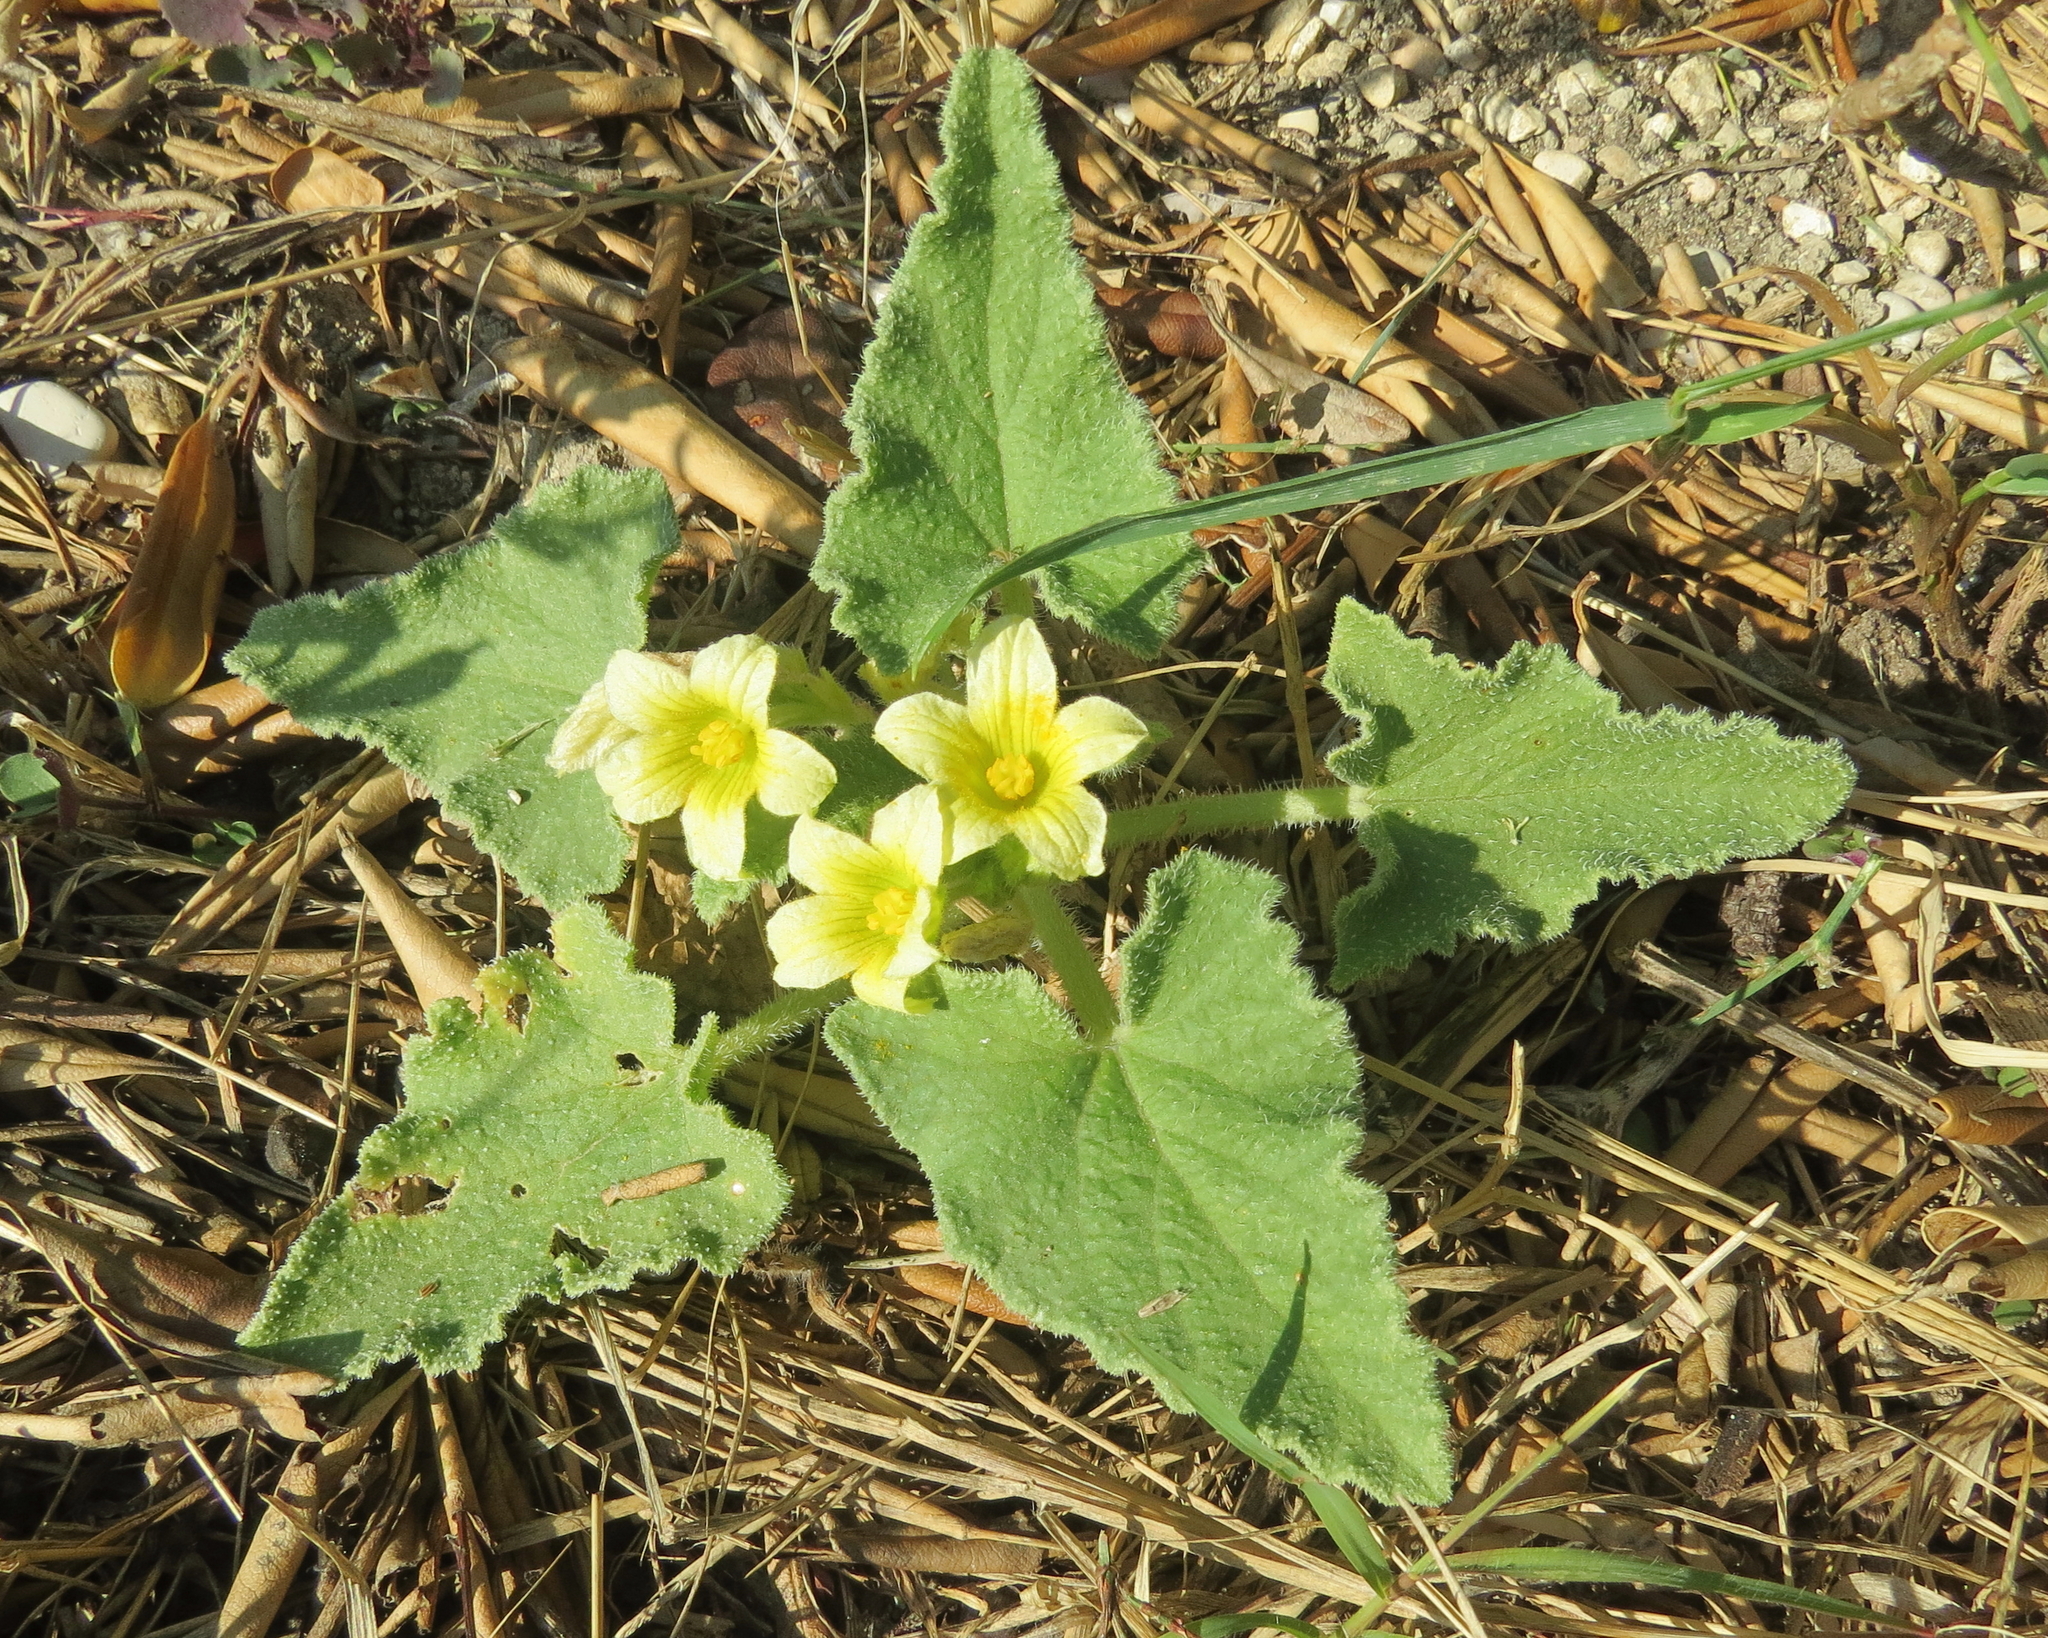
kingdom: Plantae
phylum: Tracheophyta
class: Magnoliopsida
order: Cucurbitales
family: Cucurbitaceae
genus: Ecballium
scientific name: Ecballium elaterium
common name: Squirting cucumber
